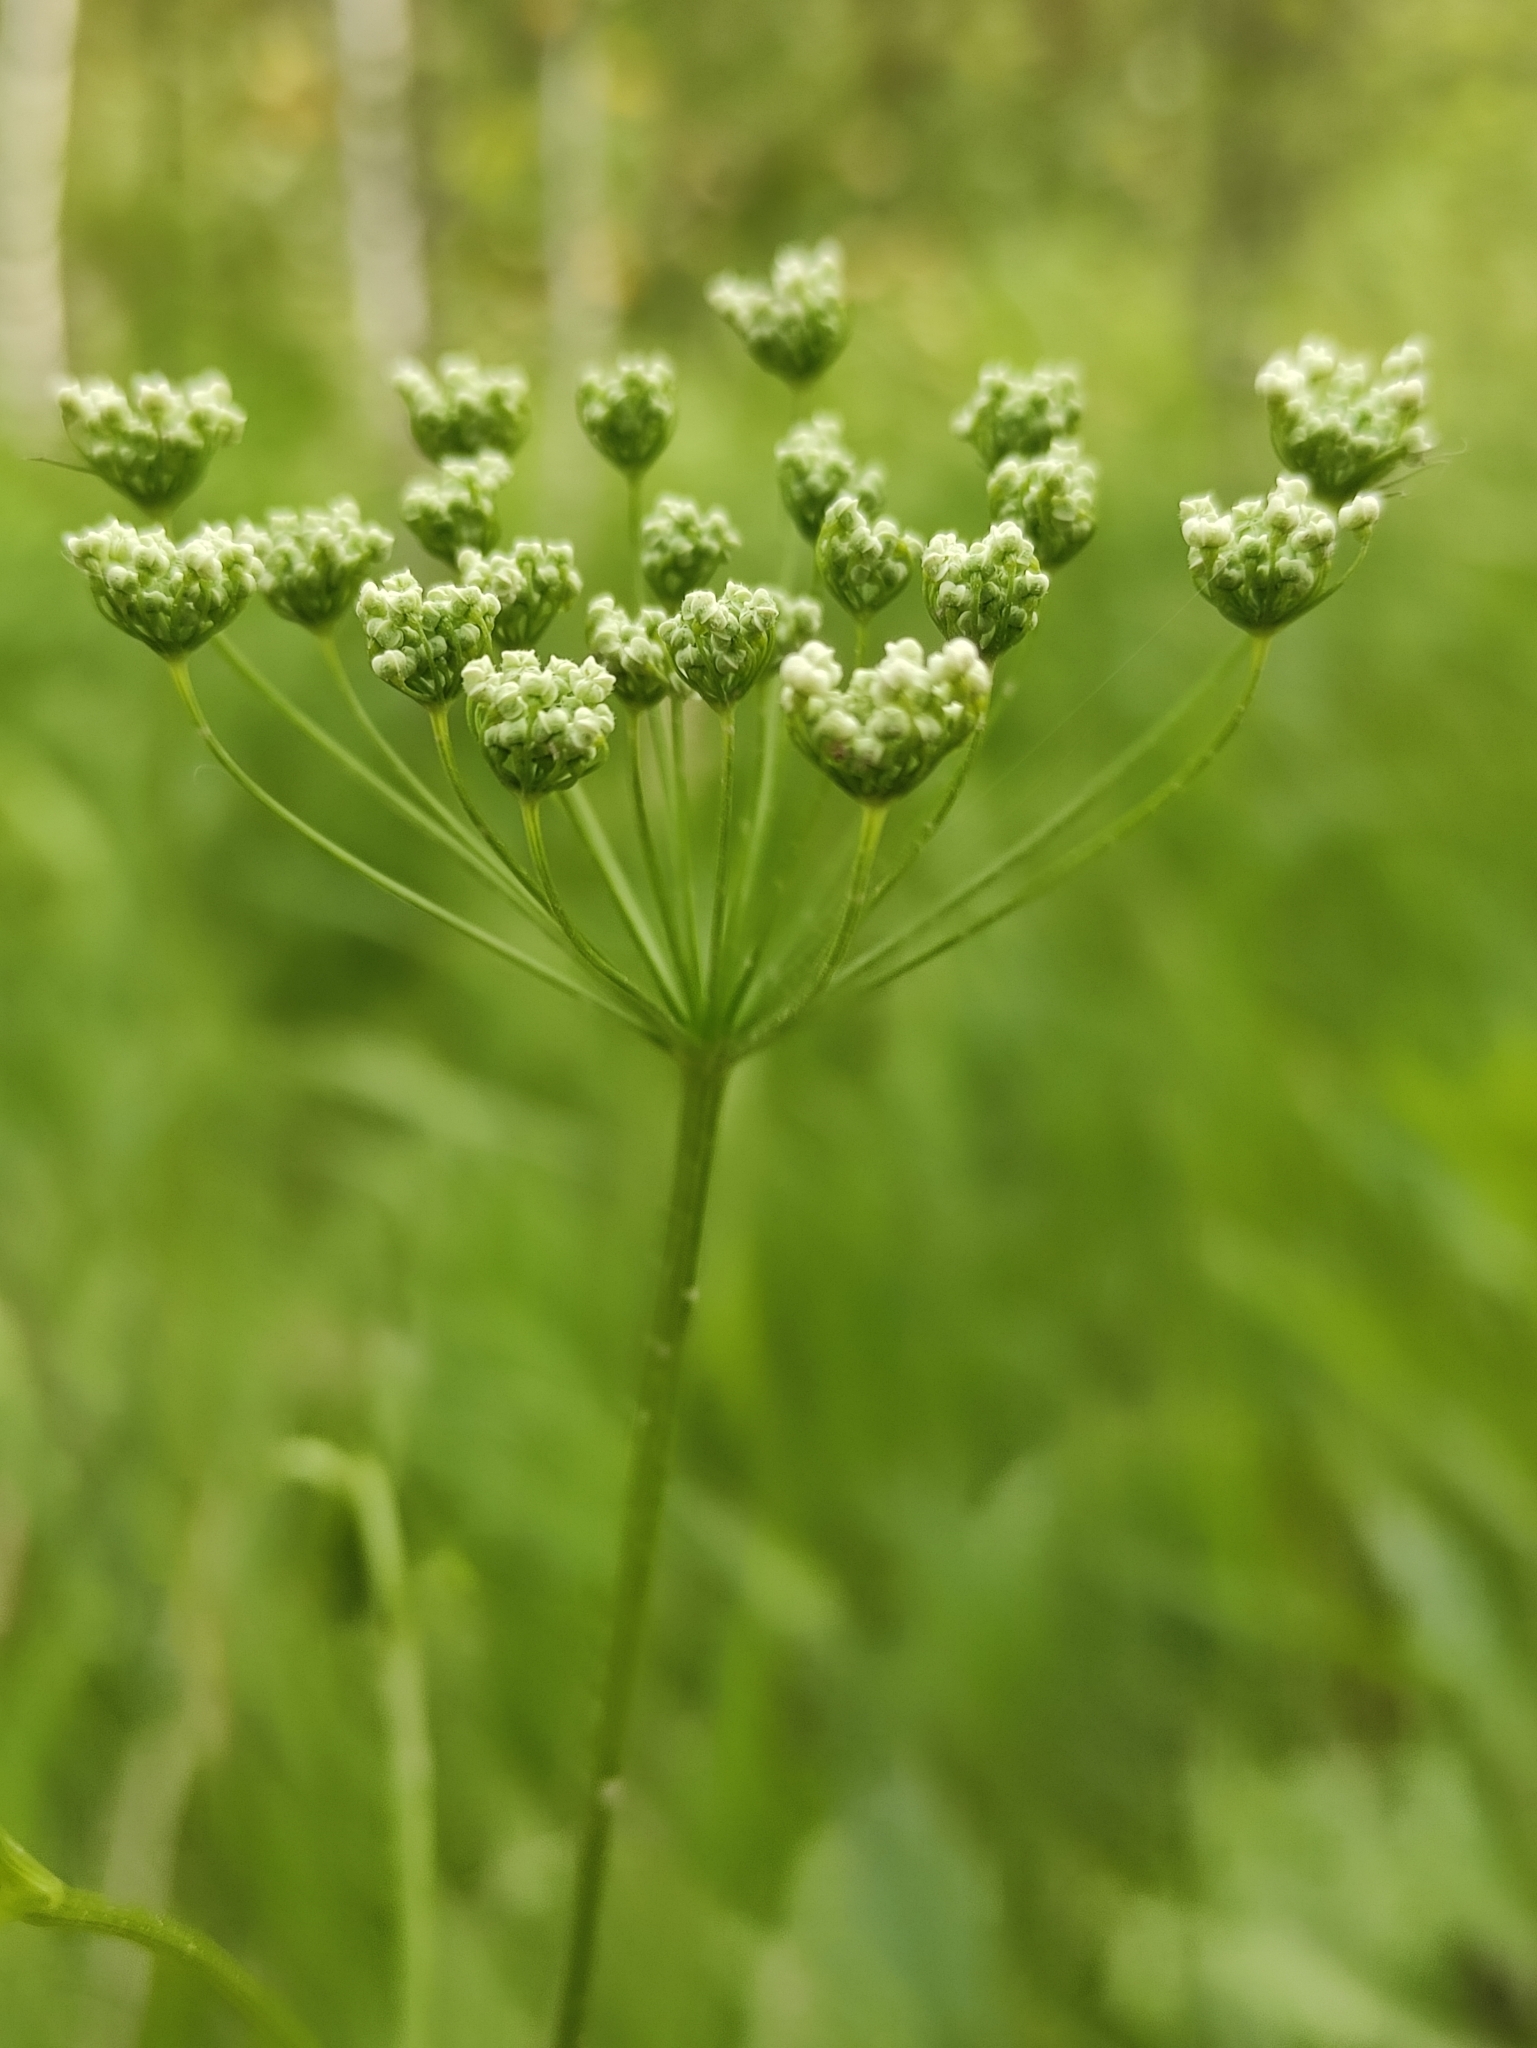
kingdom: Plantae
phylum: Tracheophyta
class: Magnoliopsida
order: Apiales
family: Apiaceae
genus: Pimpinella
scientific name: Pimpinella saxifraga
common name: Burnet-saxifrage
